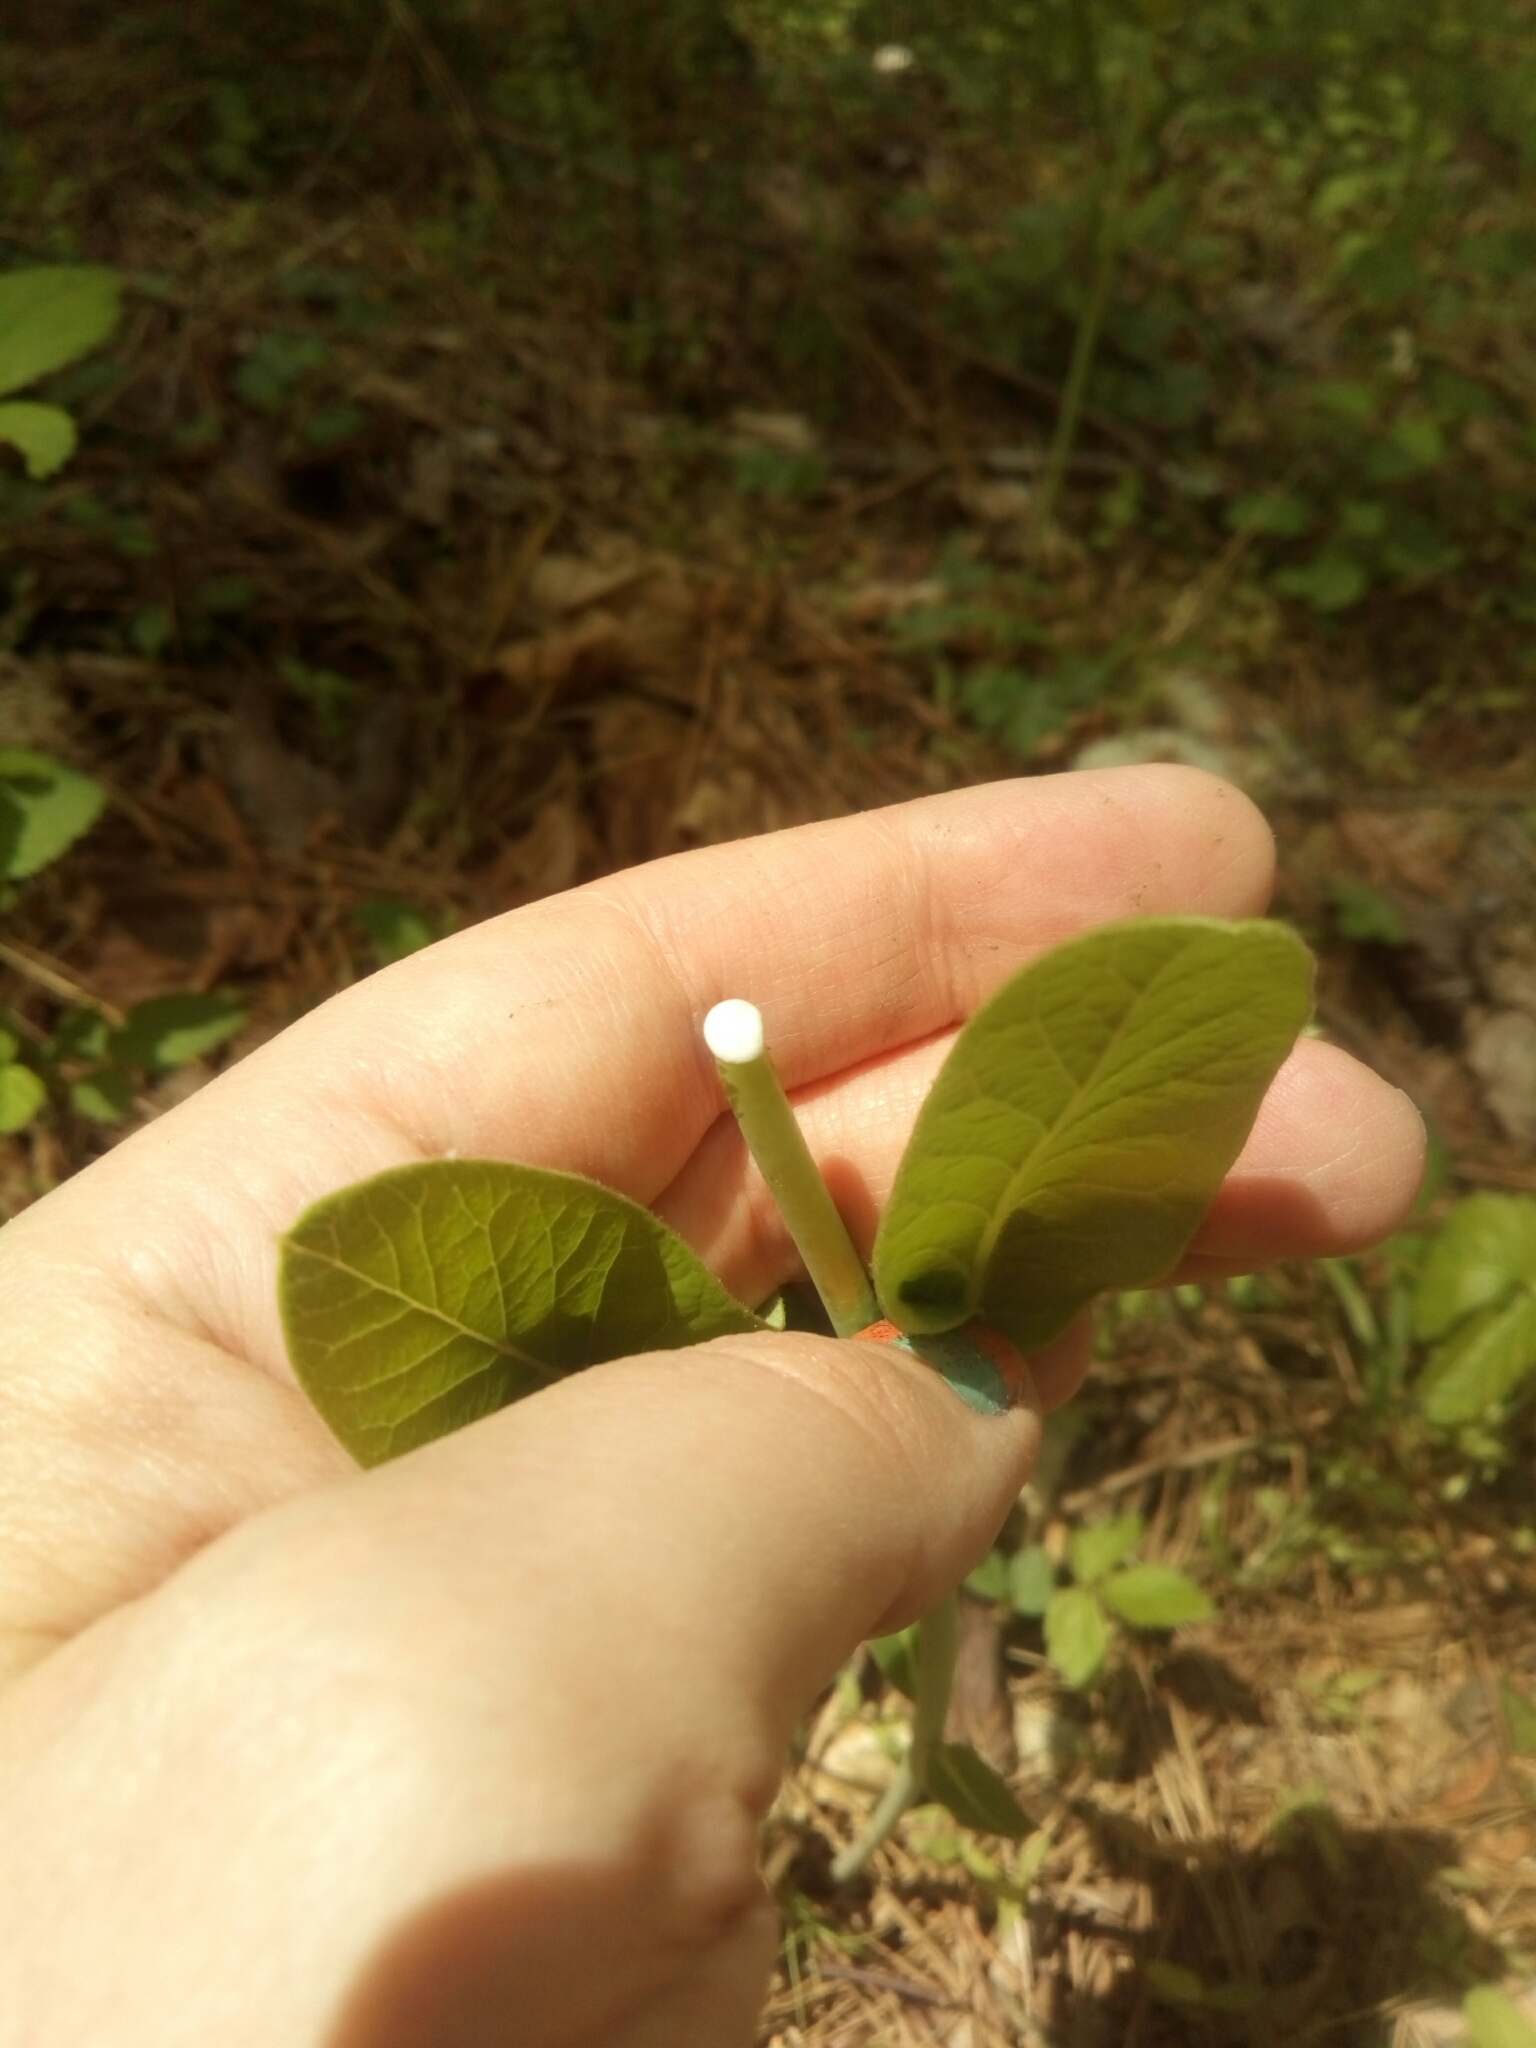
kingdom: Plantae
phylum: Tracheophyta
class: Magnoliopsida
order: Gentianales
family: Apocynaceae
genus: Apocynum
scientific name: Apocynum cannabinum
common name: Hemp dogbane
